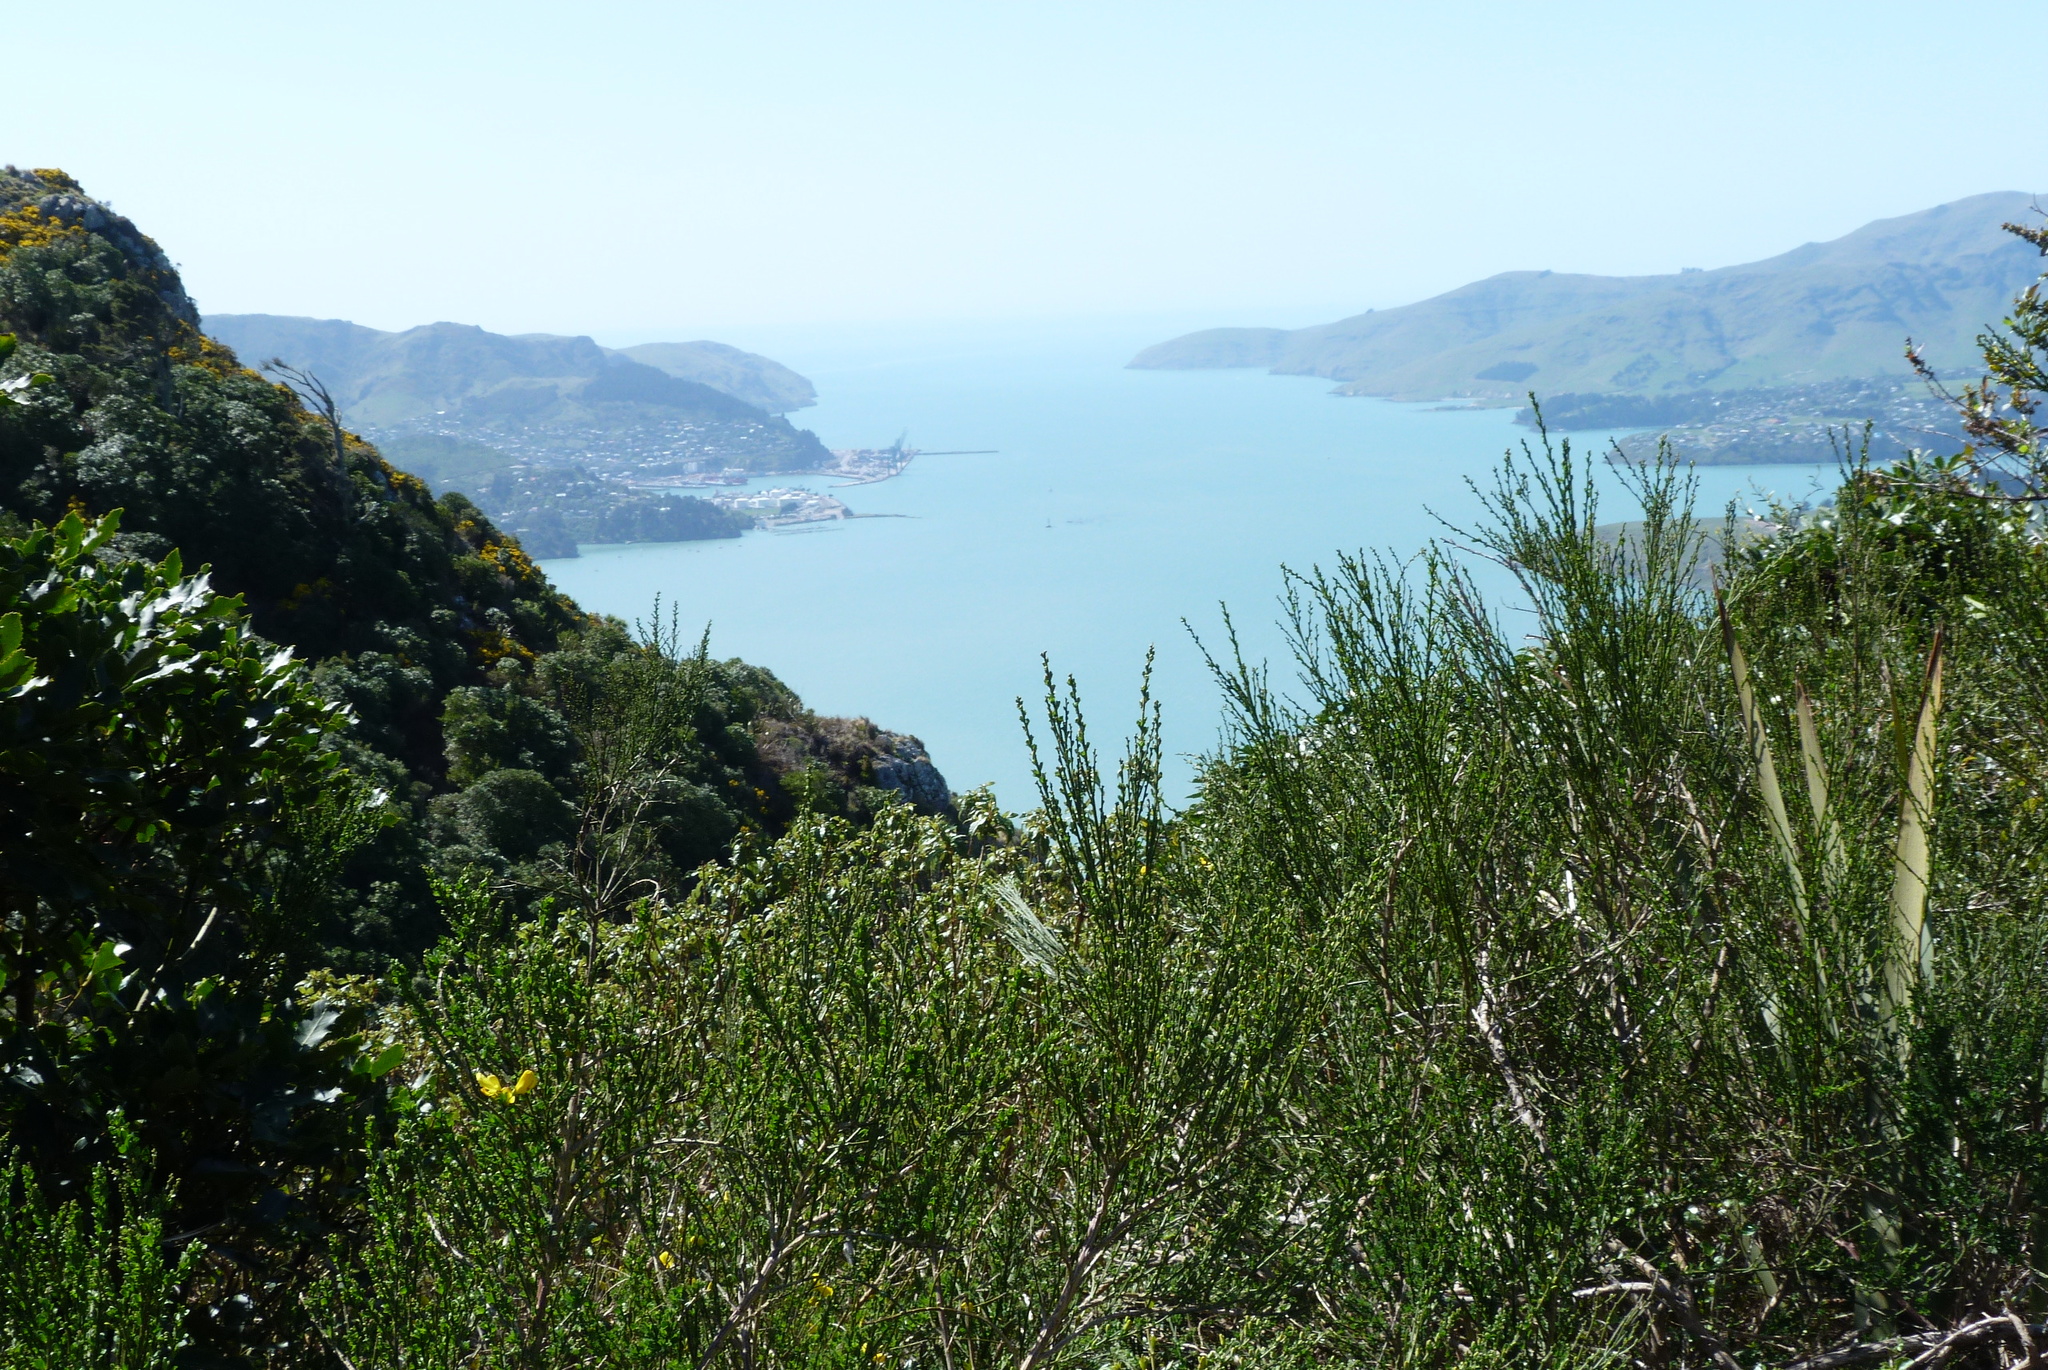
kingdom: Plantae
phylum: Tracheophyta
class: Magnoliopsida
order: Fabales
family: Fabaceae
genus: Cytisus
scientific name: Cytisus scoparius
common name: Scotch broom
